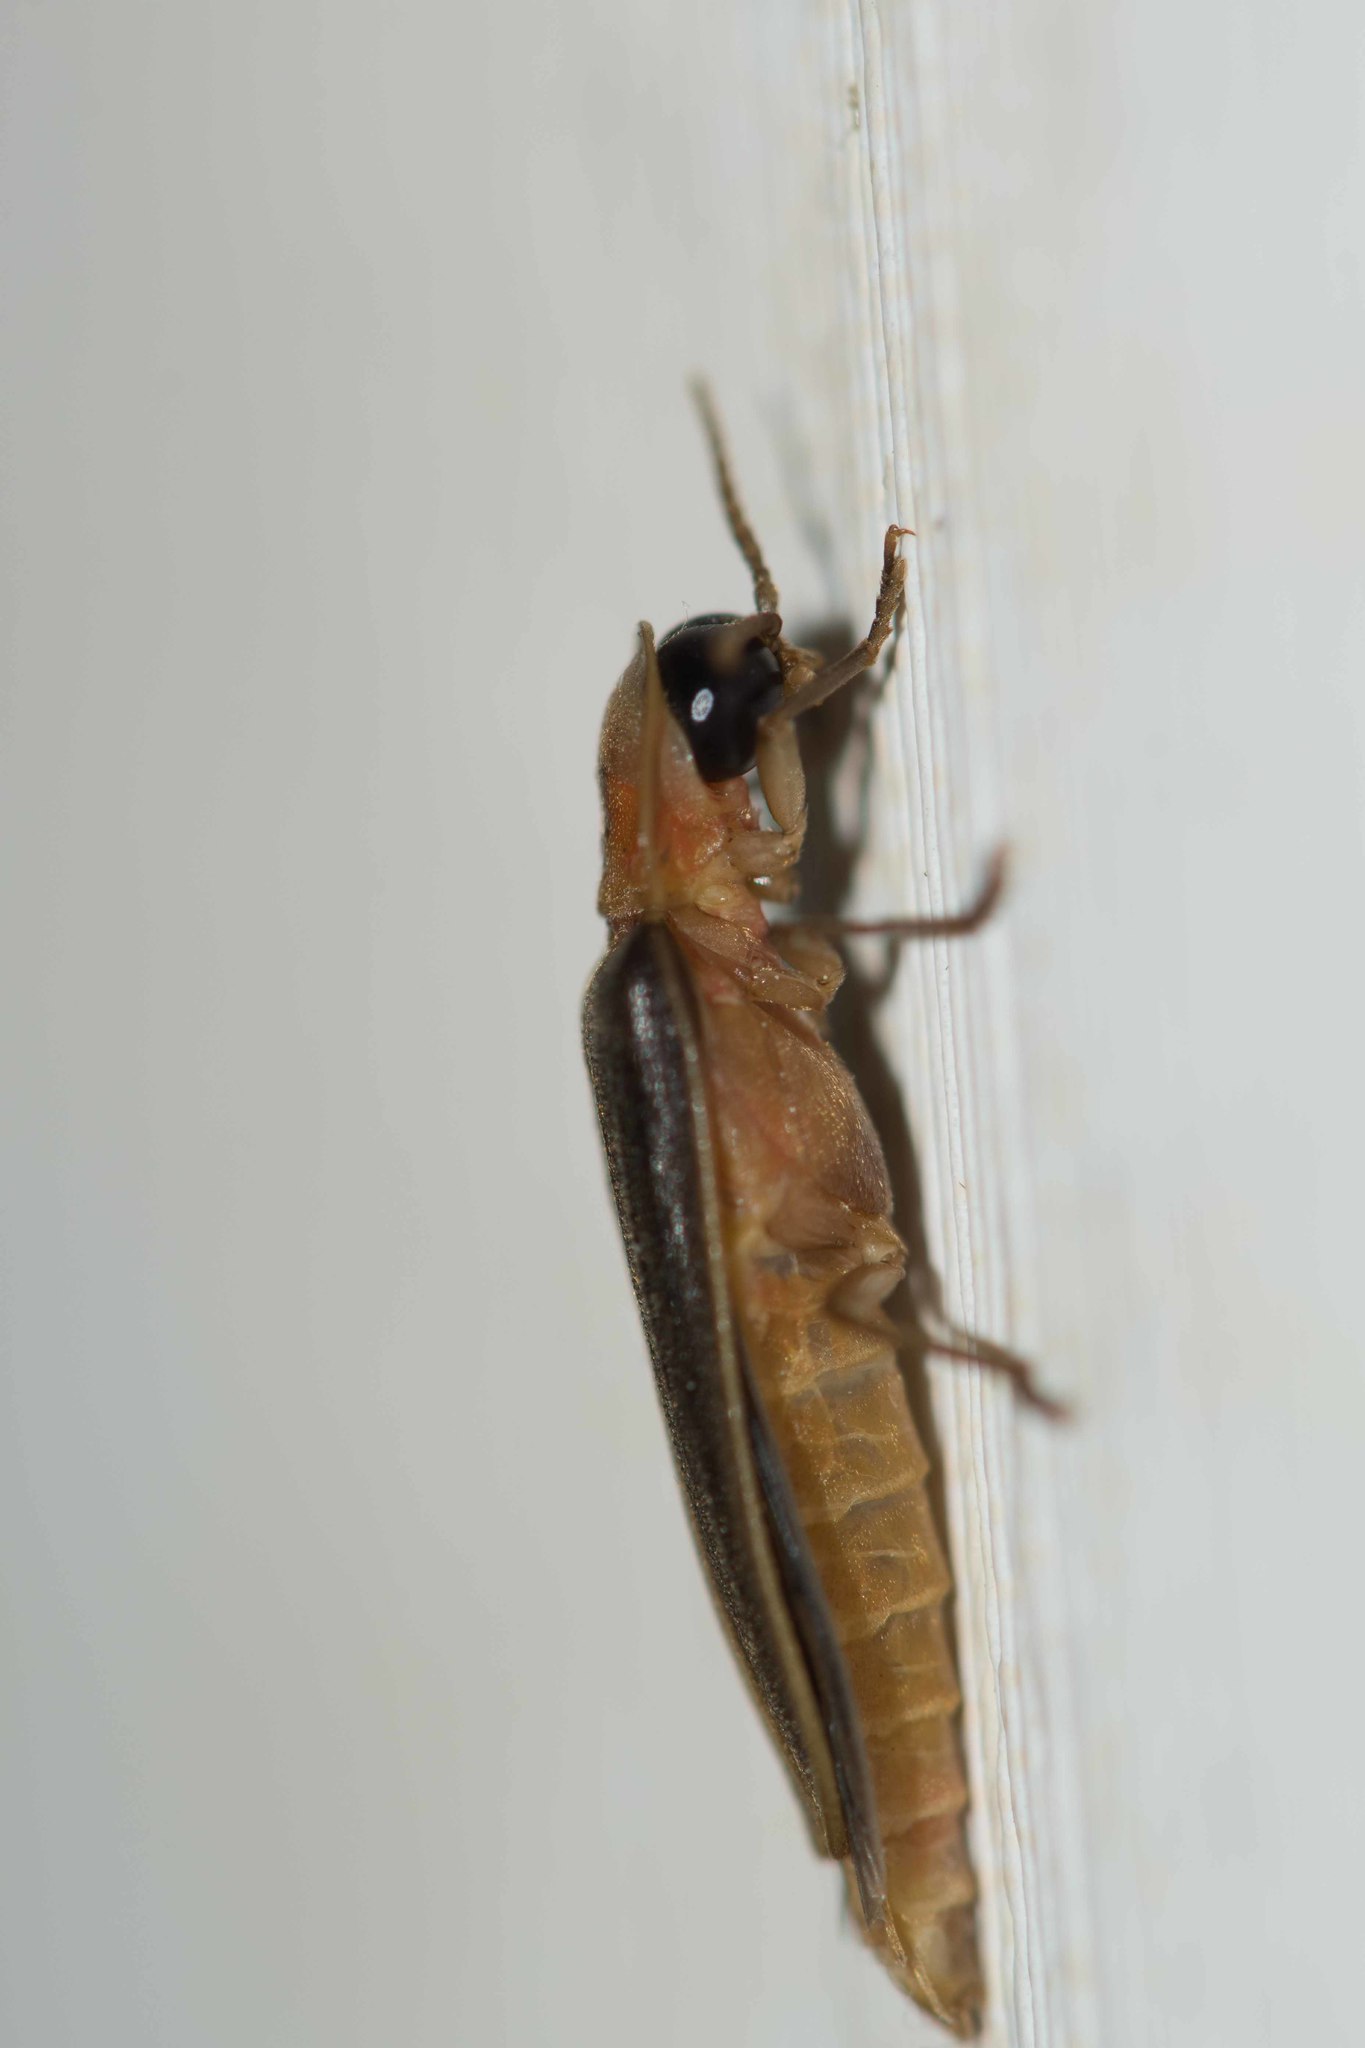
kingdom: Animalia
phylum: Arthropoda
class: Insecta
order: Coleoptera
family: Lampyridae
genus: Nyctophila
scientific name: Nyctophila reichii
